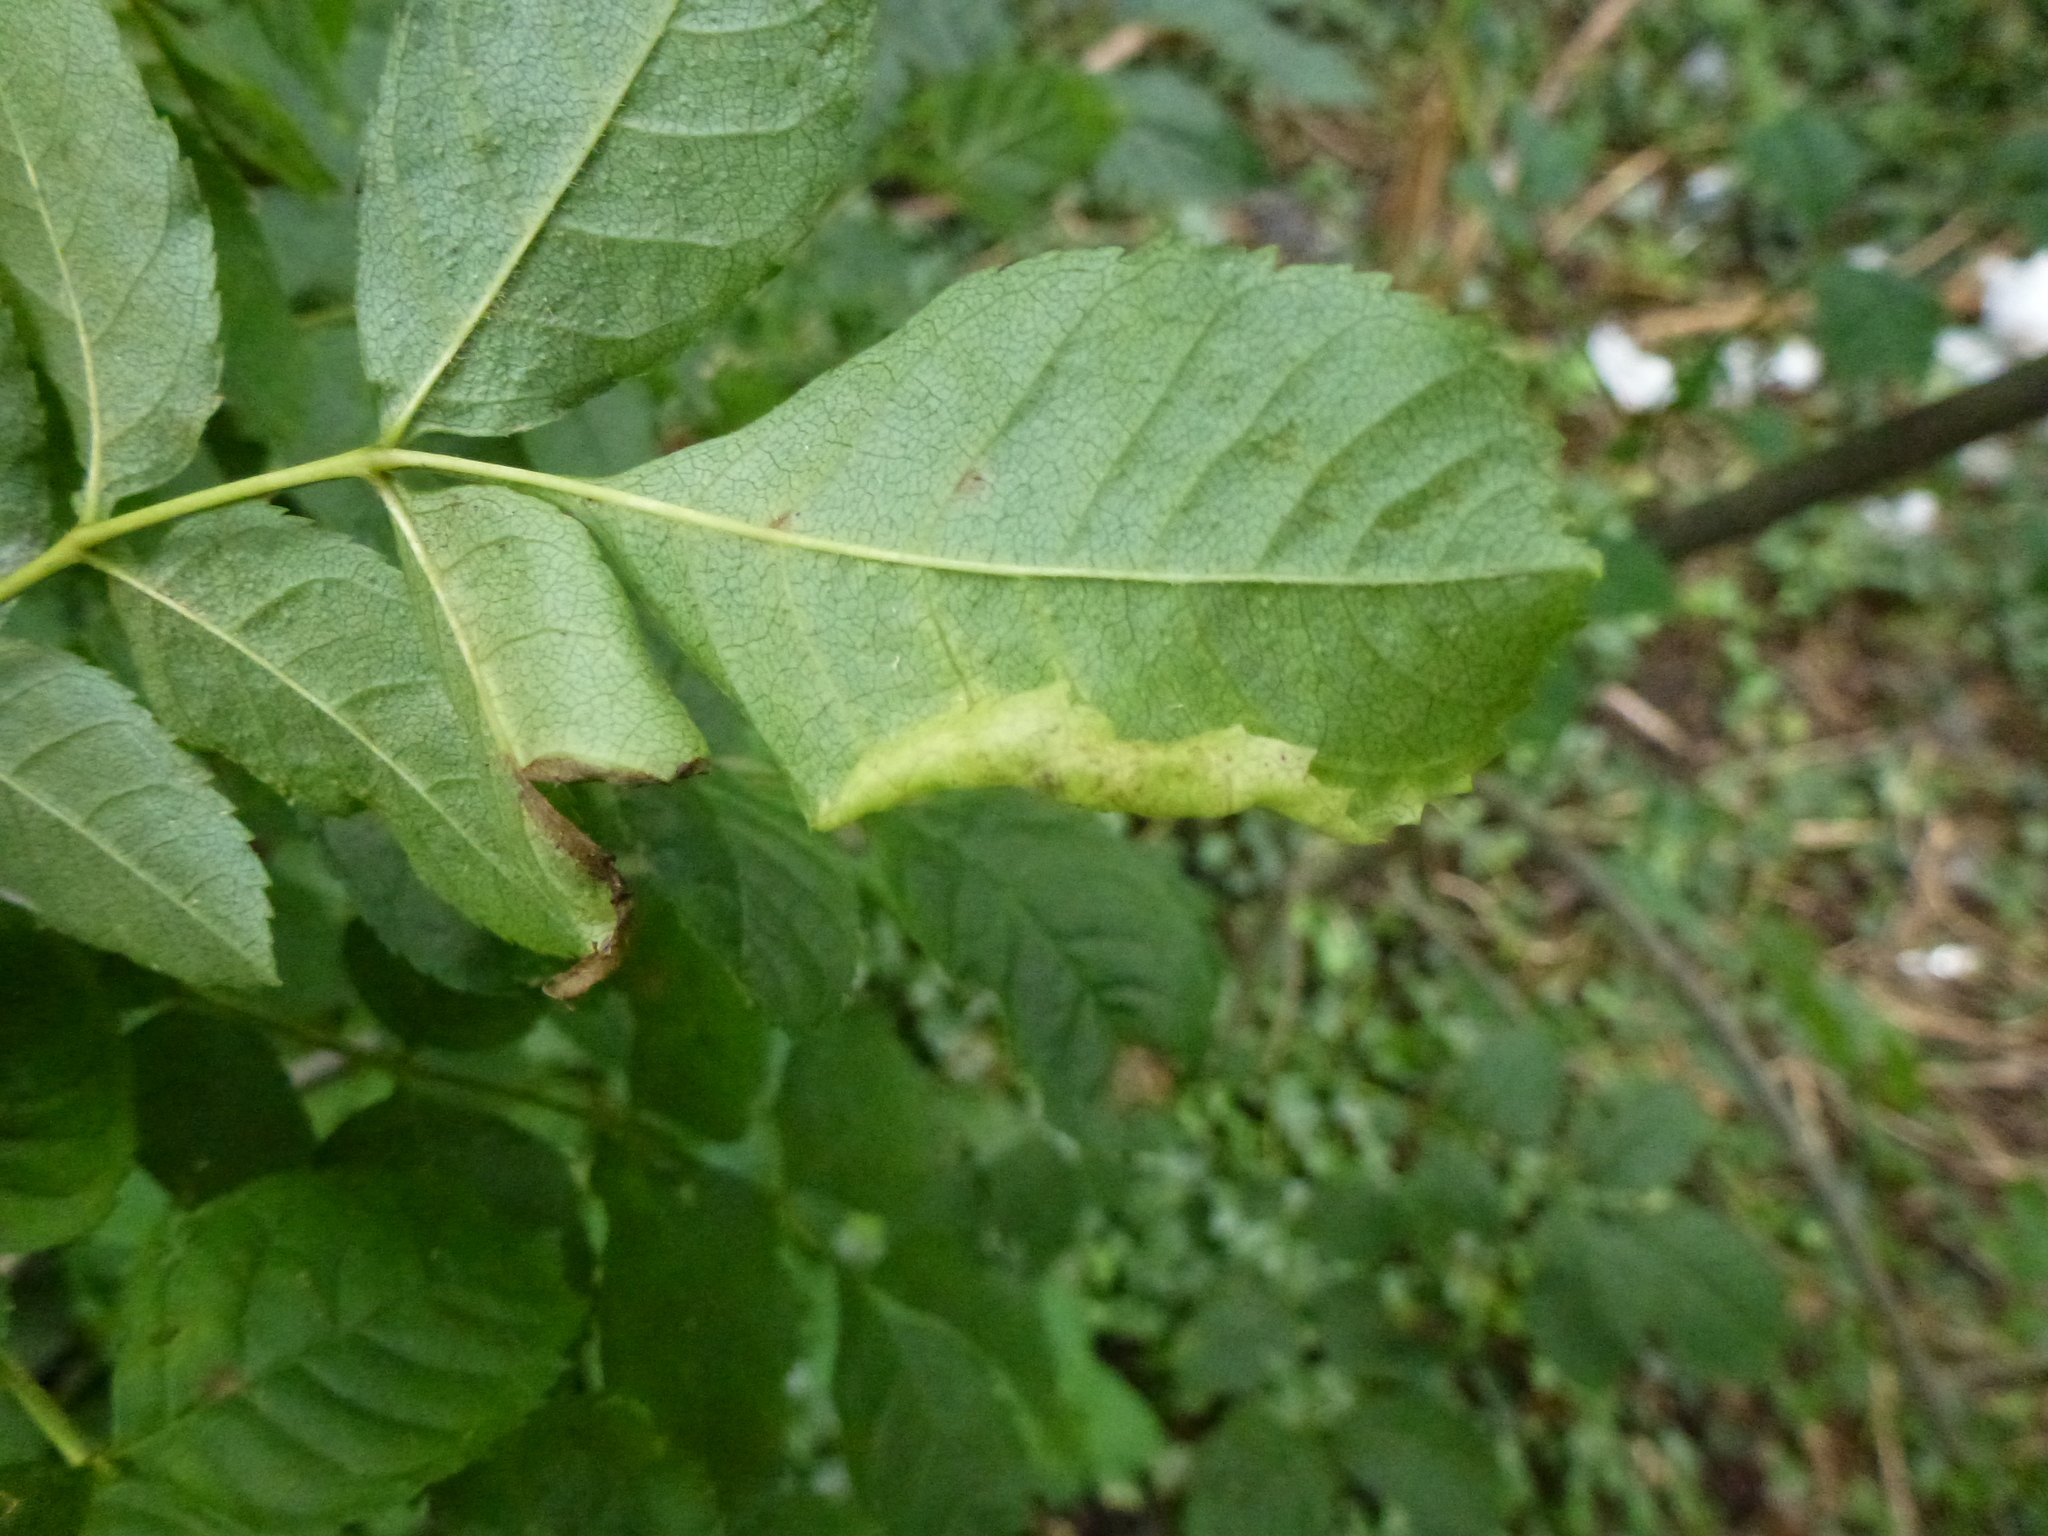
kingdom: Animalia
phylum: Arthropoda
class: Insecta
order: Hemiptera
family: Liviidae
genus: Psyllopsis
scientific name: Psyllopsis fraxini
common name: Jumping plant louse
